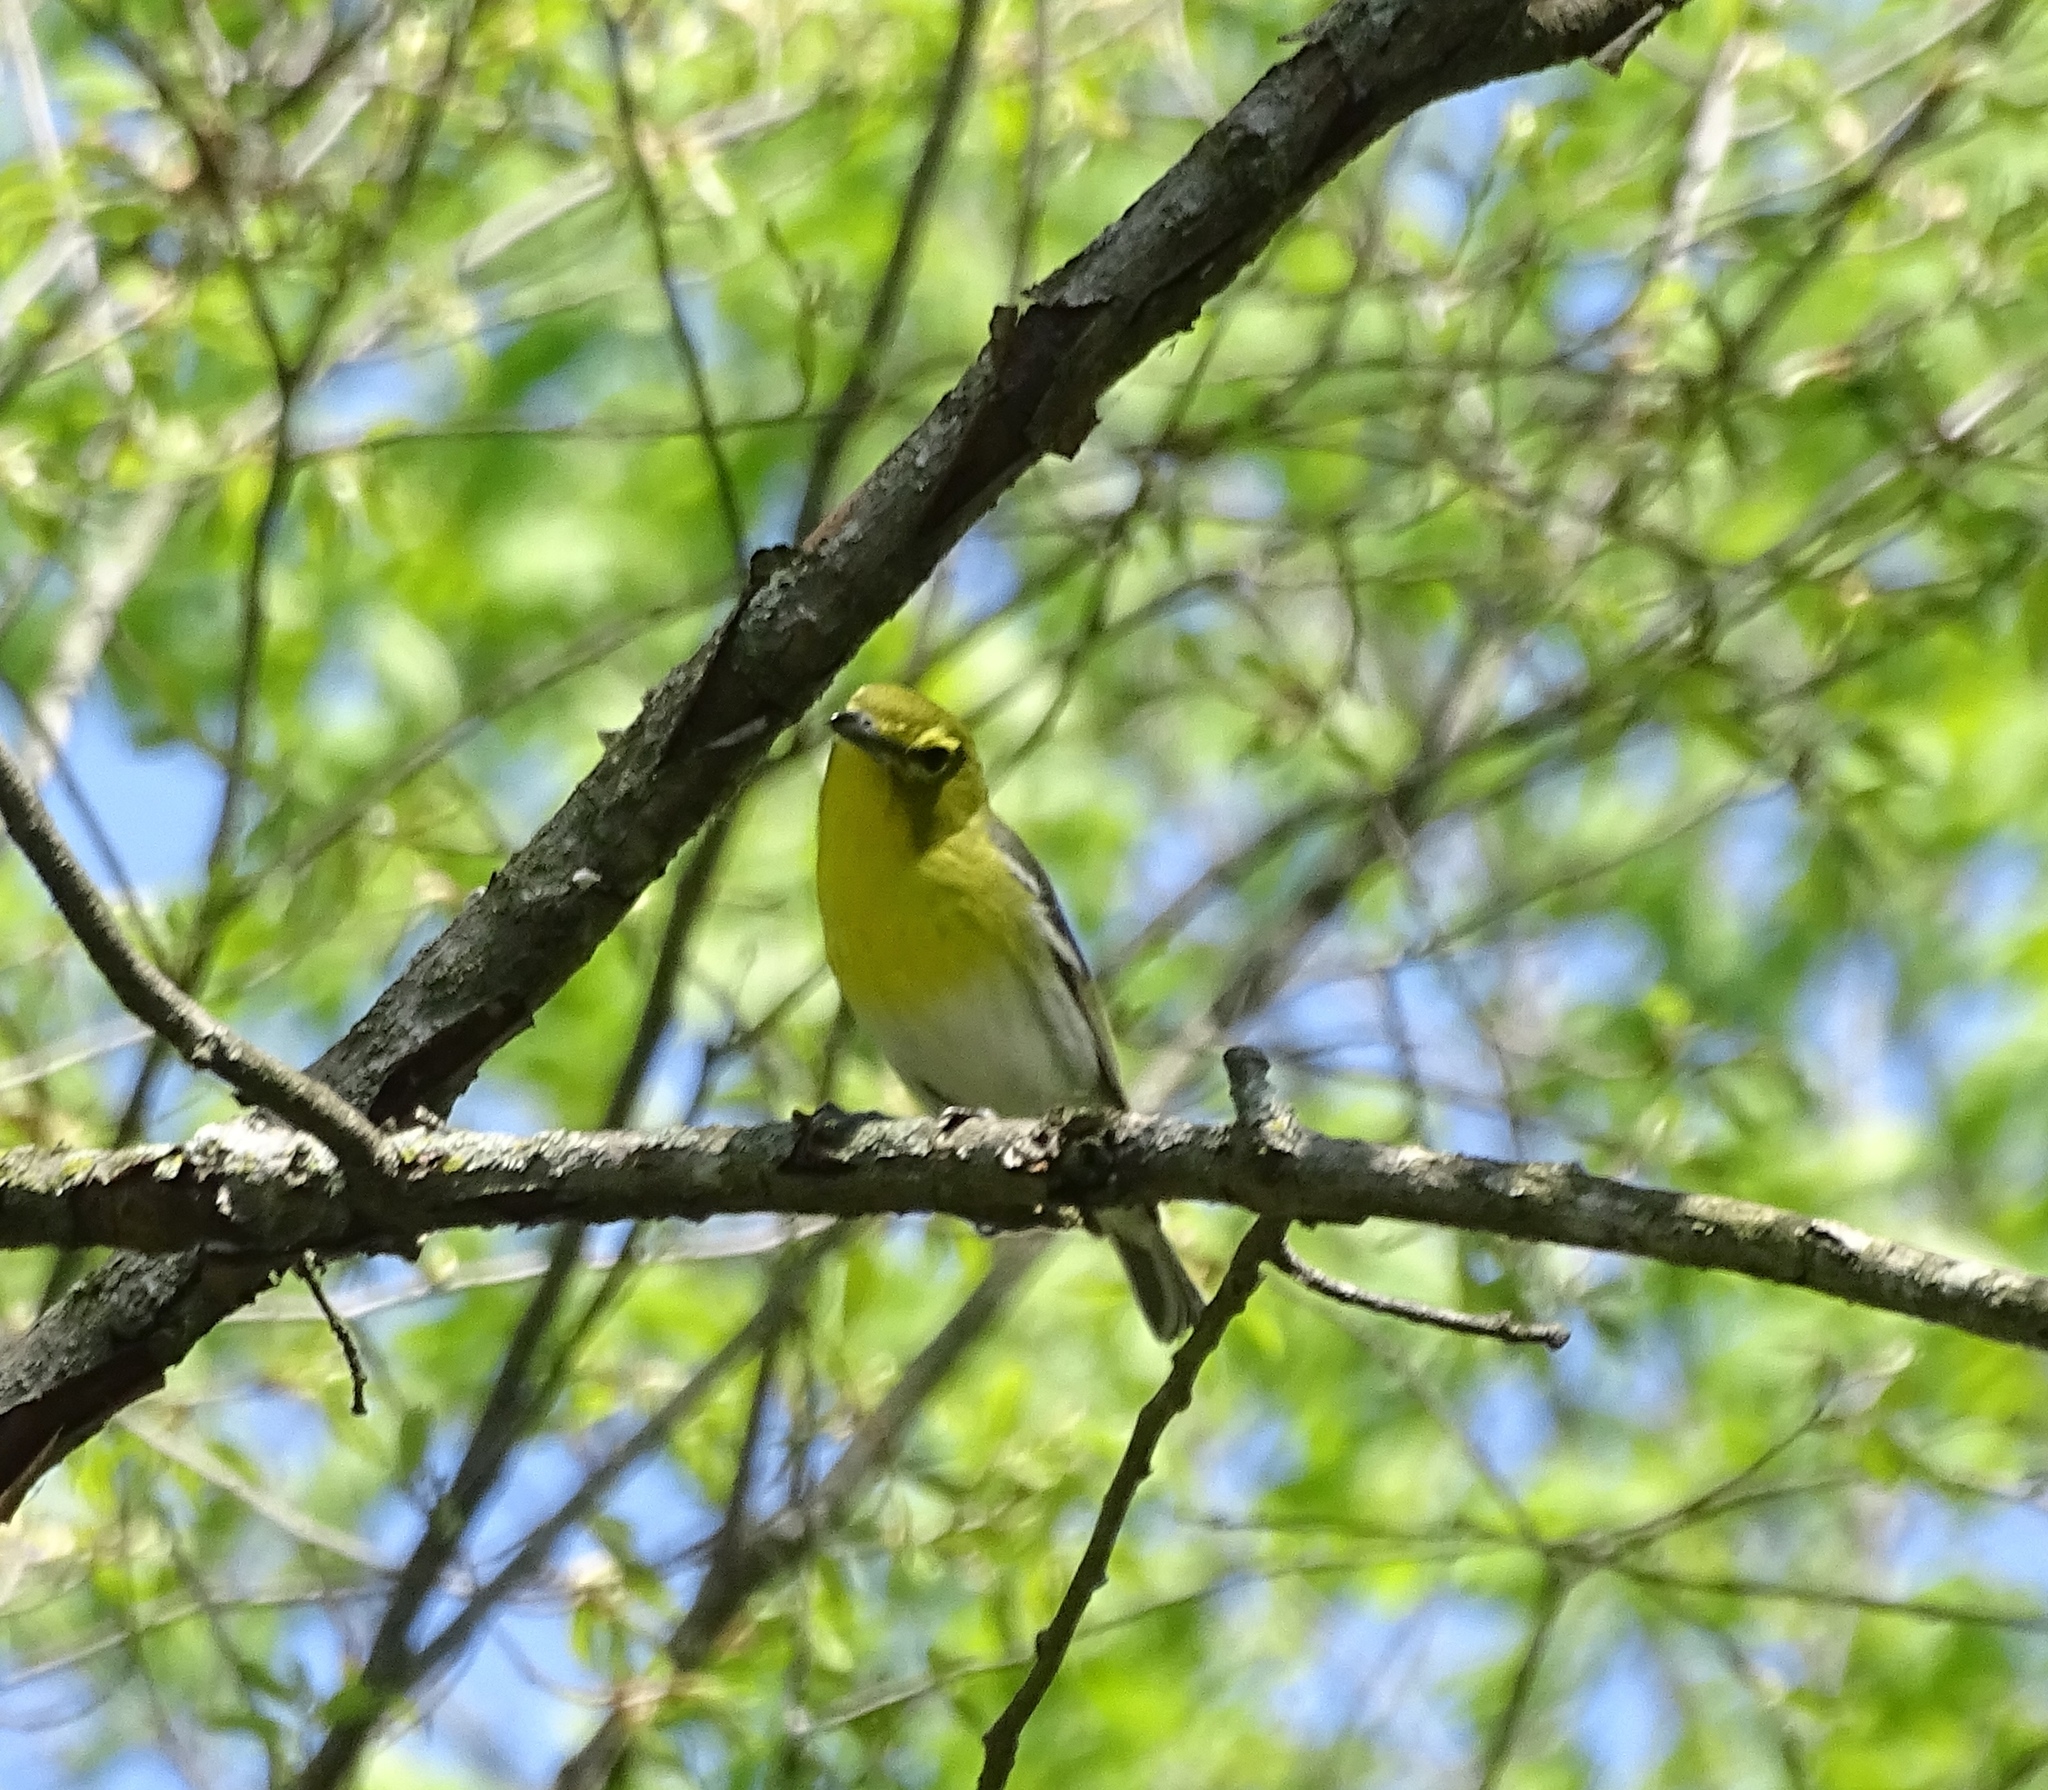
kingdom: Animalia
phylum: Chordata
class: Aves
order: Passeriformes
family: Vireonidae
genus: Vireo
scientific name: Vireo flavifrons
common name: Yellow-throated vireo
